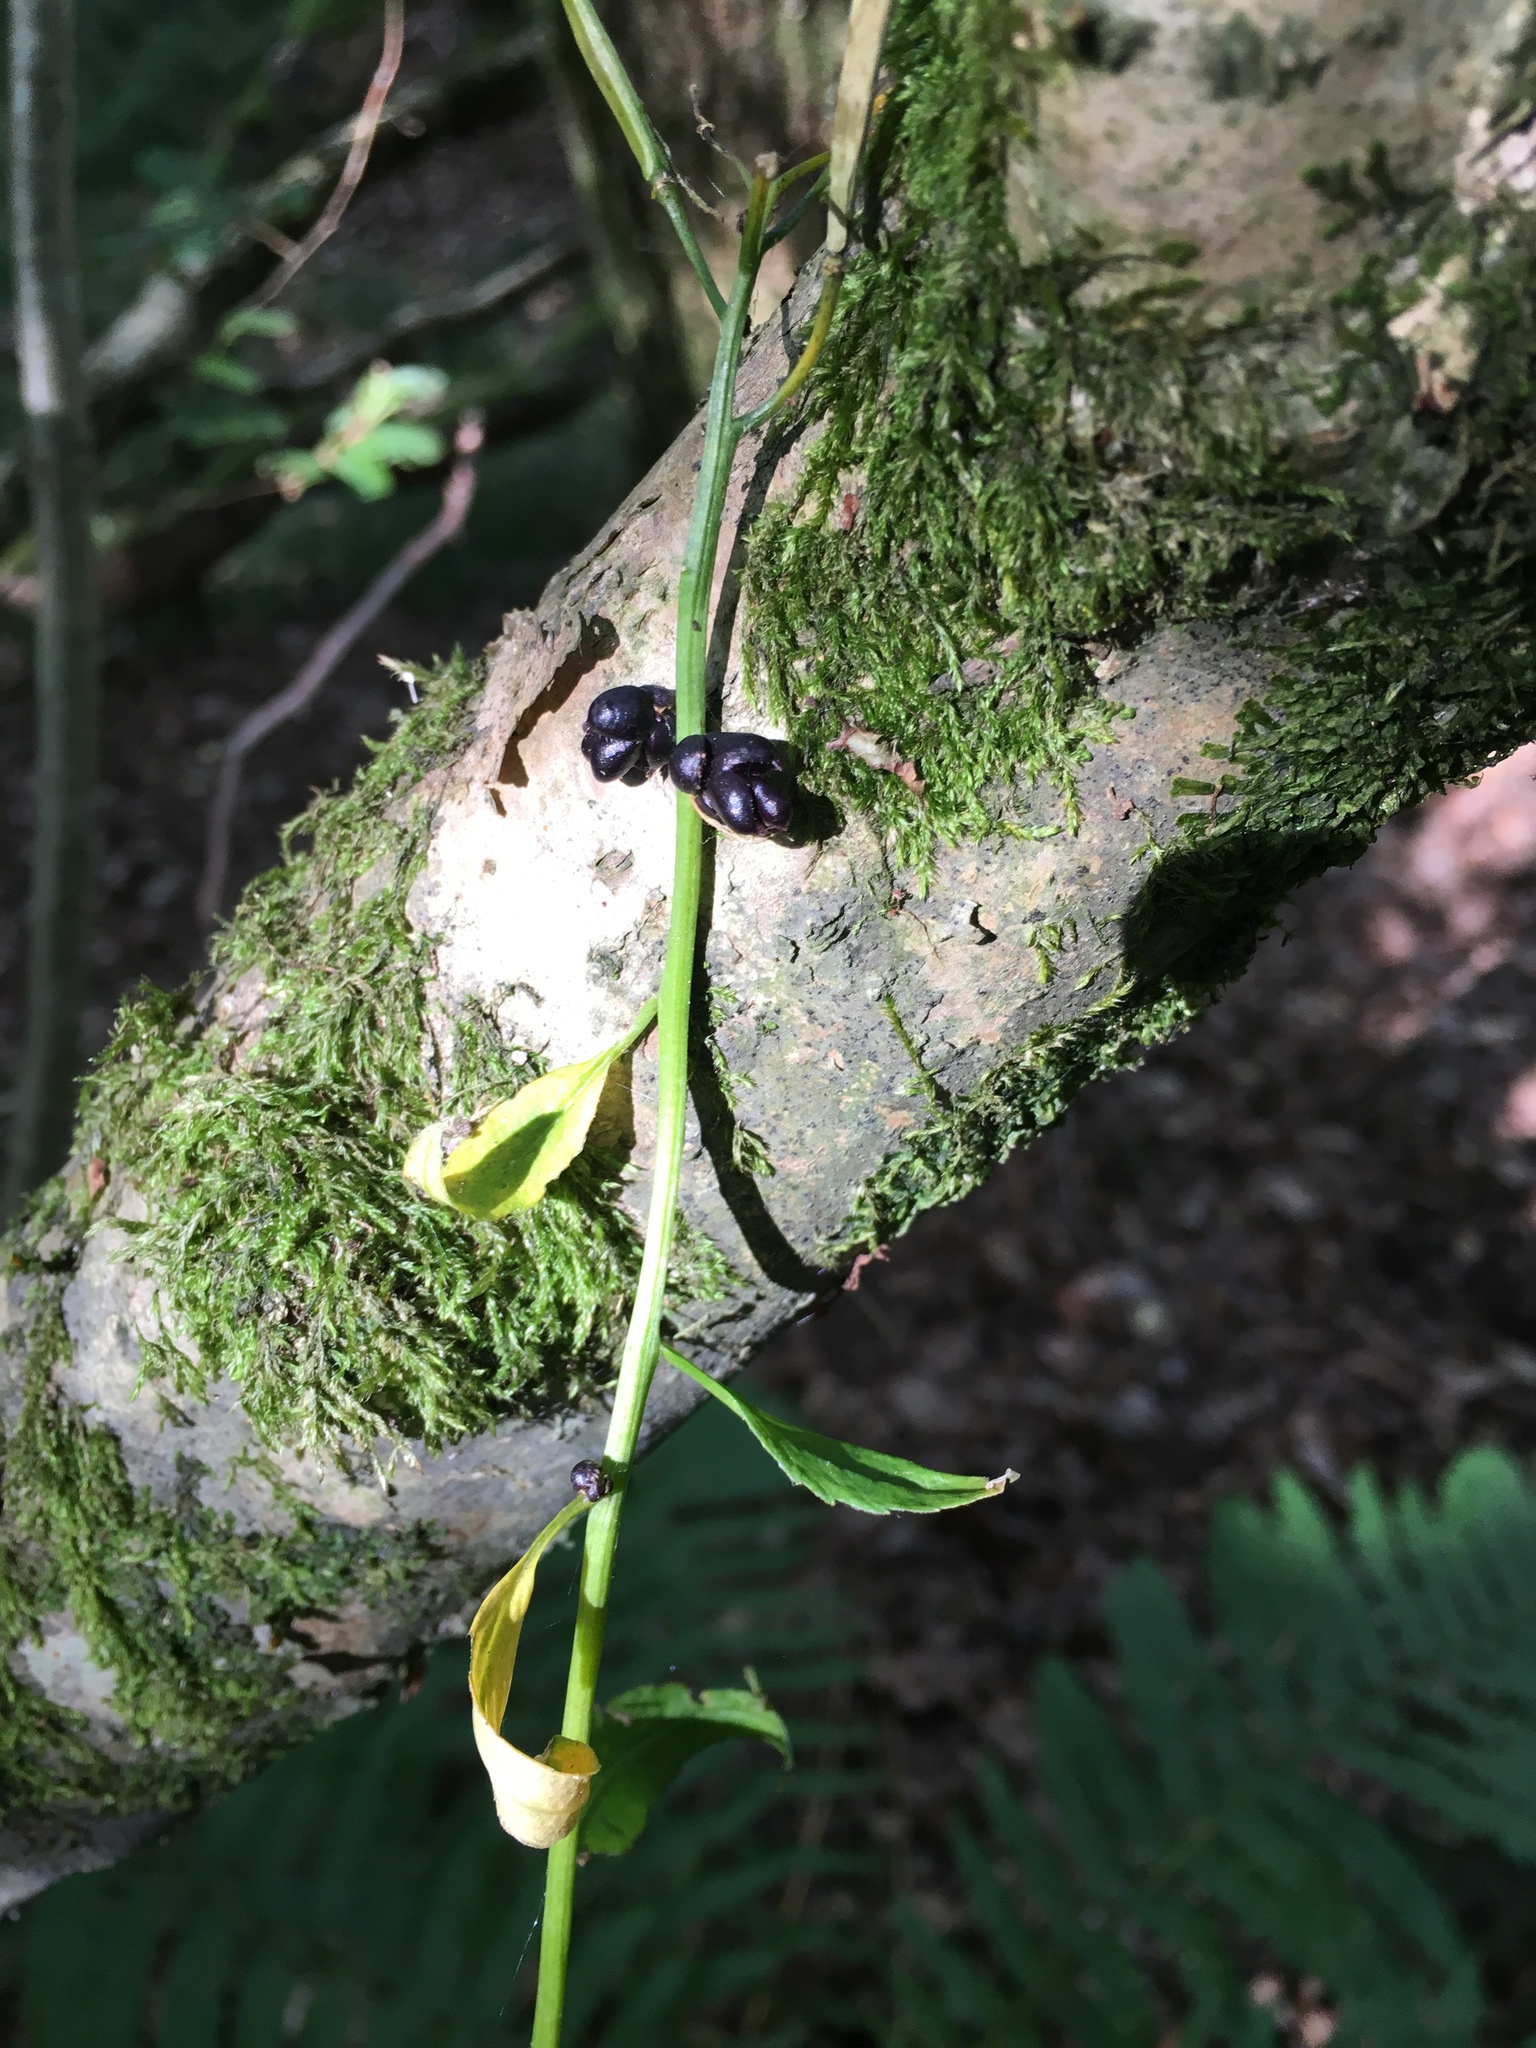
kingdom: Plantae
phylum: Tracheophyta
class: Magnoliopsida
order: Brassicales
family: Brassicaceae
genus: Cardamine
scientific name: Cardamine bulbifera
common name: Coralroot bittercress
